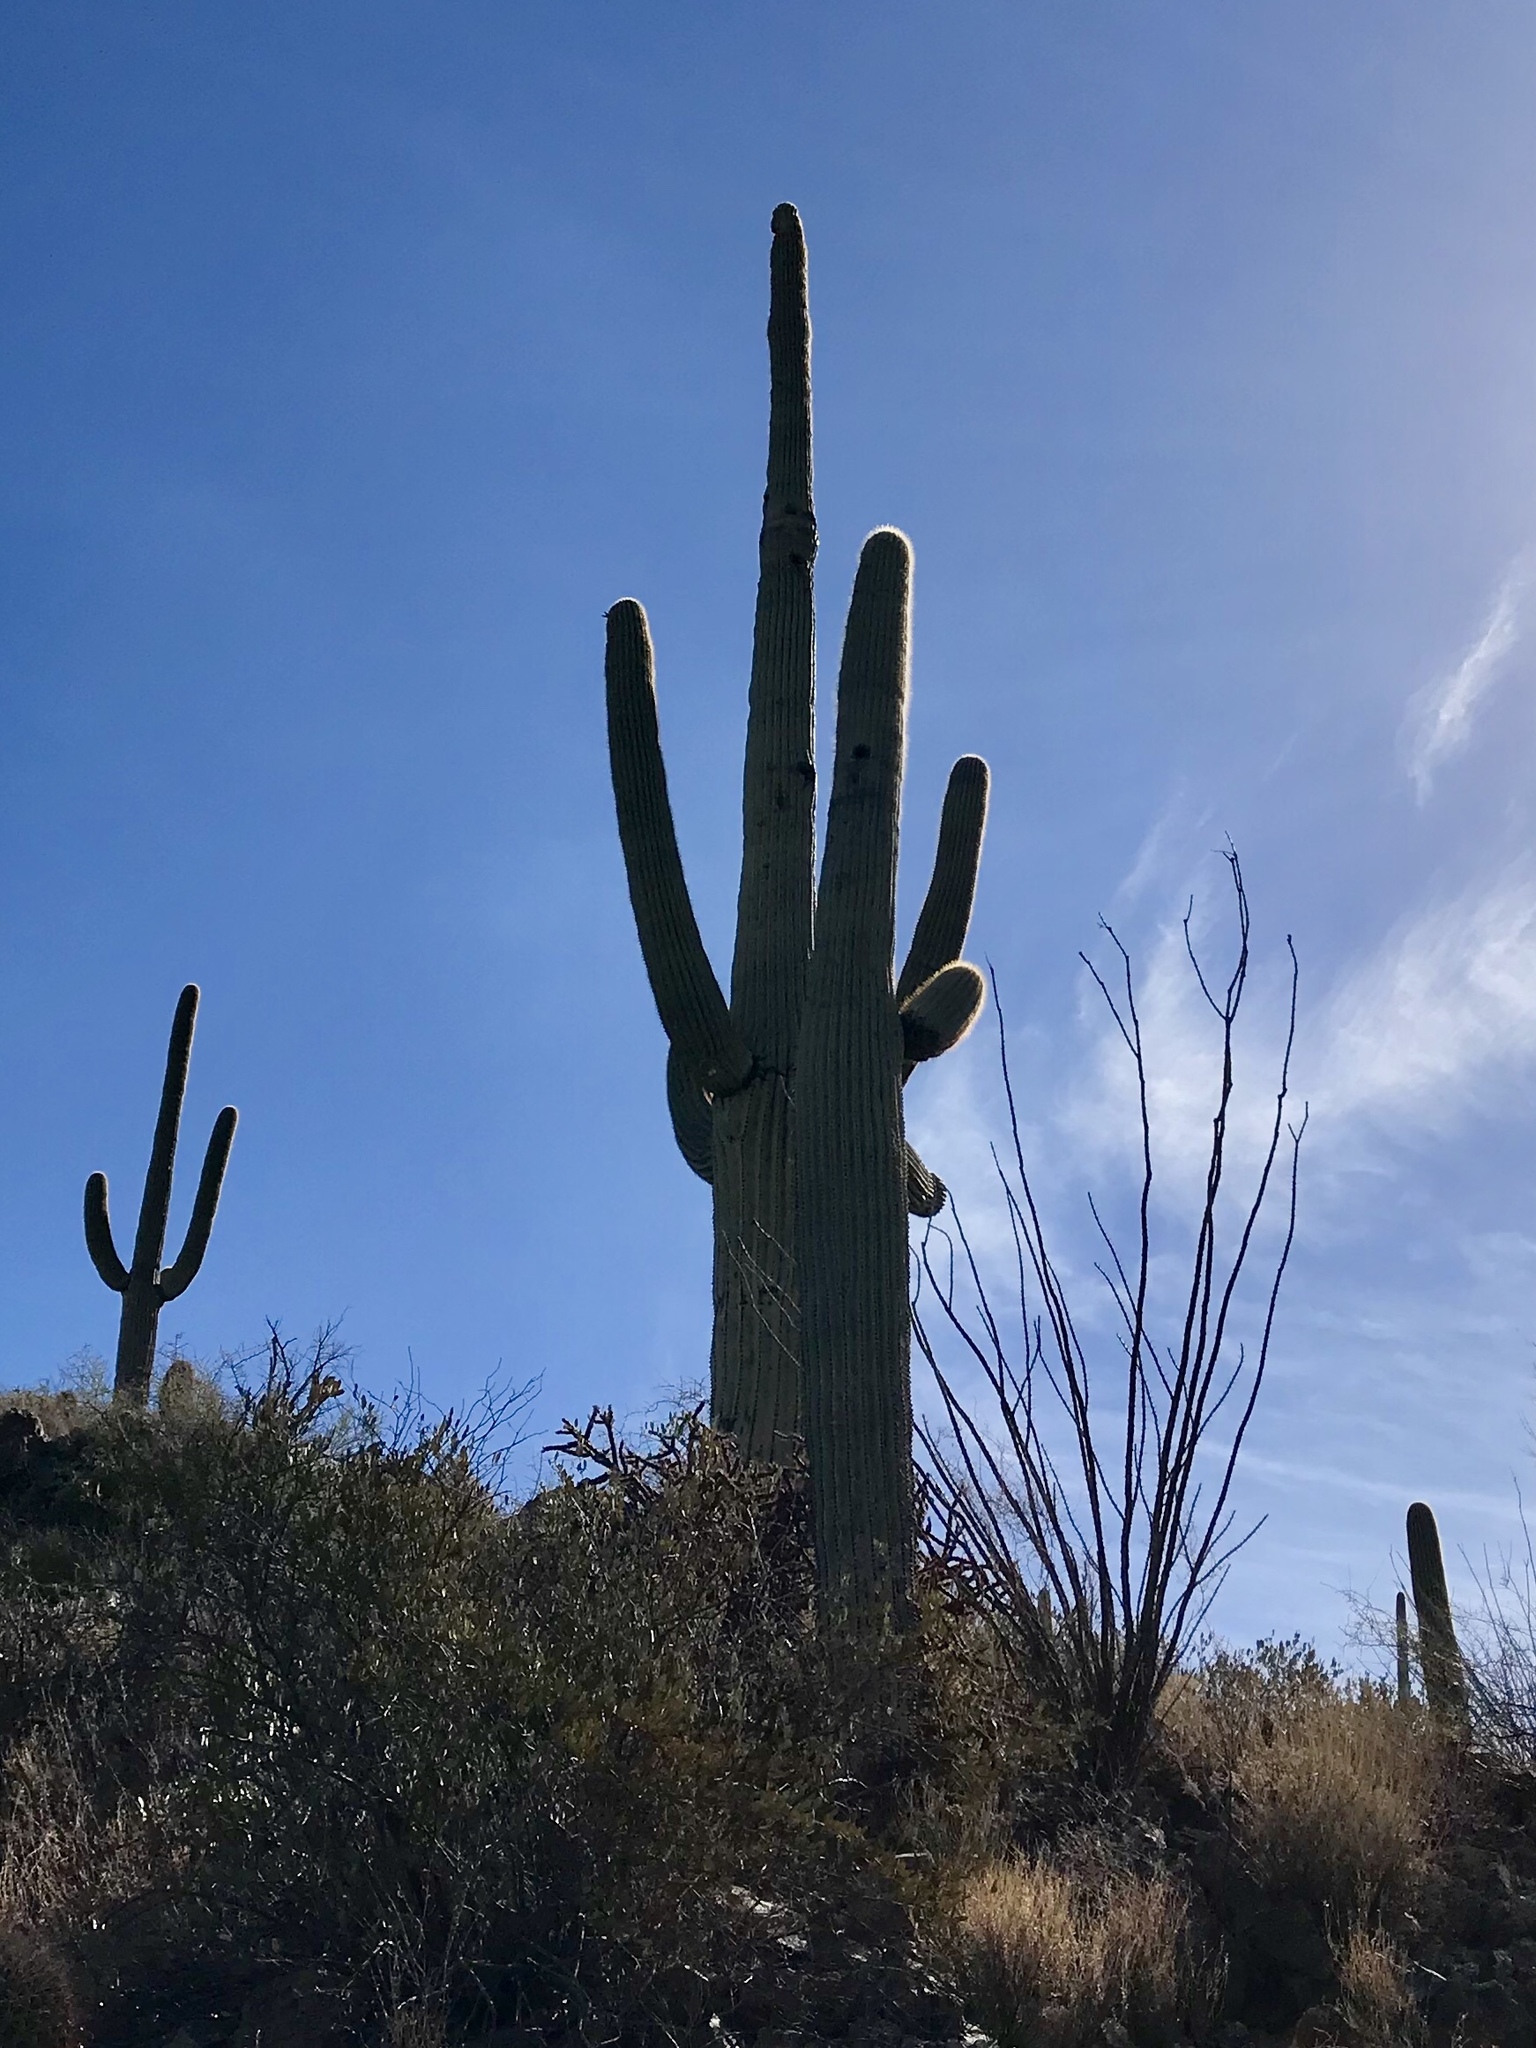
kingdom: Plantae
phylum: Tracheophyta
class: Magnoliopsida
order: Caryophyllales
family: Cactaceae
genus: Carnegiea
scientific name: Carnegiea gigantea
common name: Saguaro
